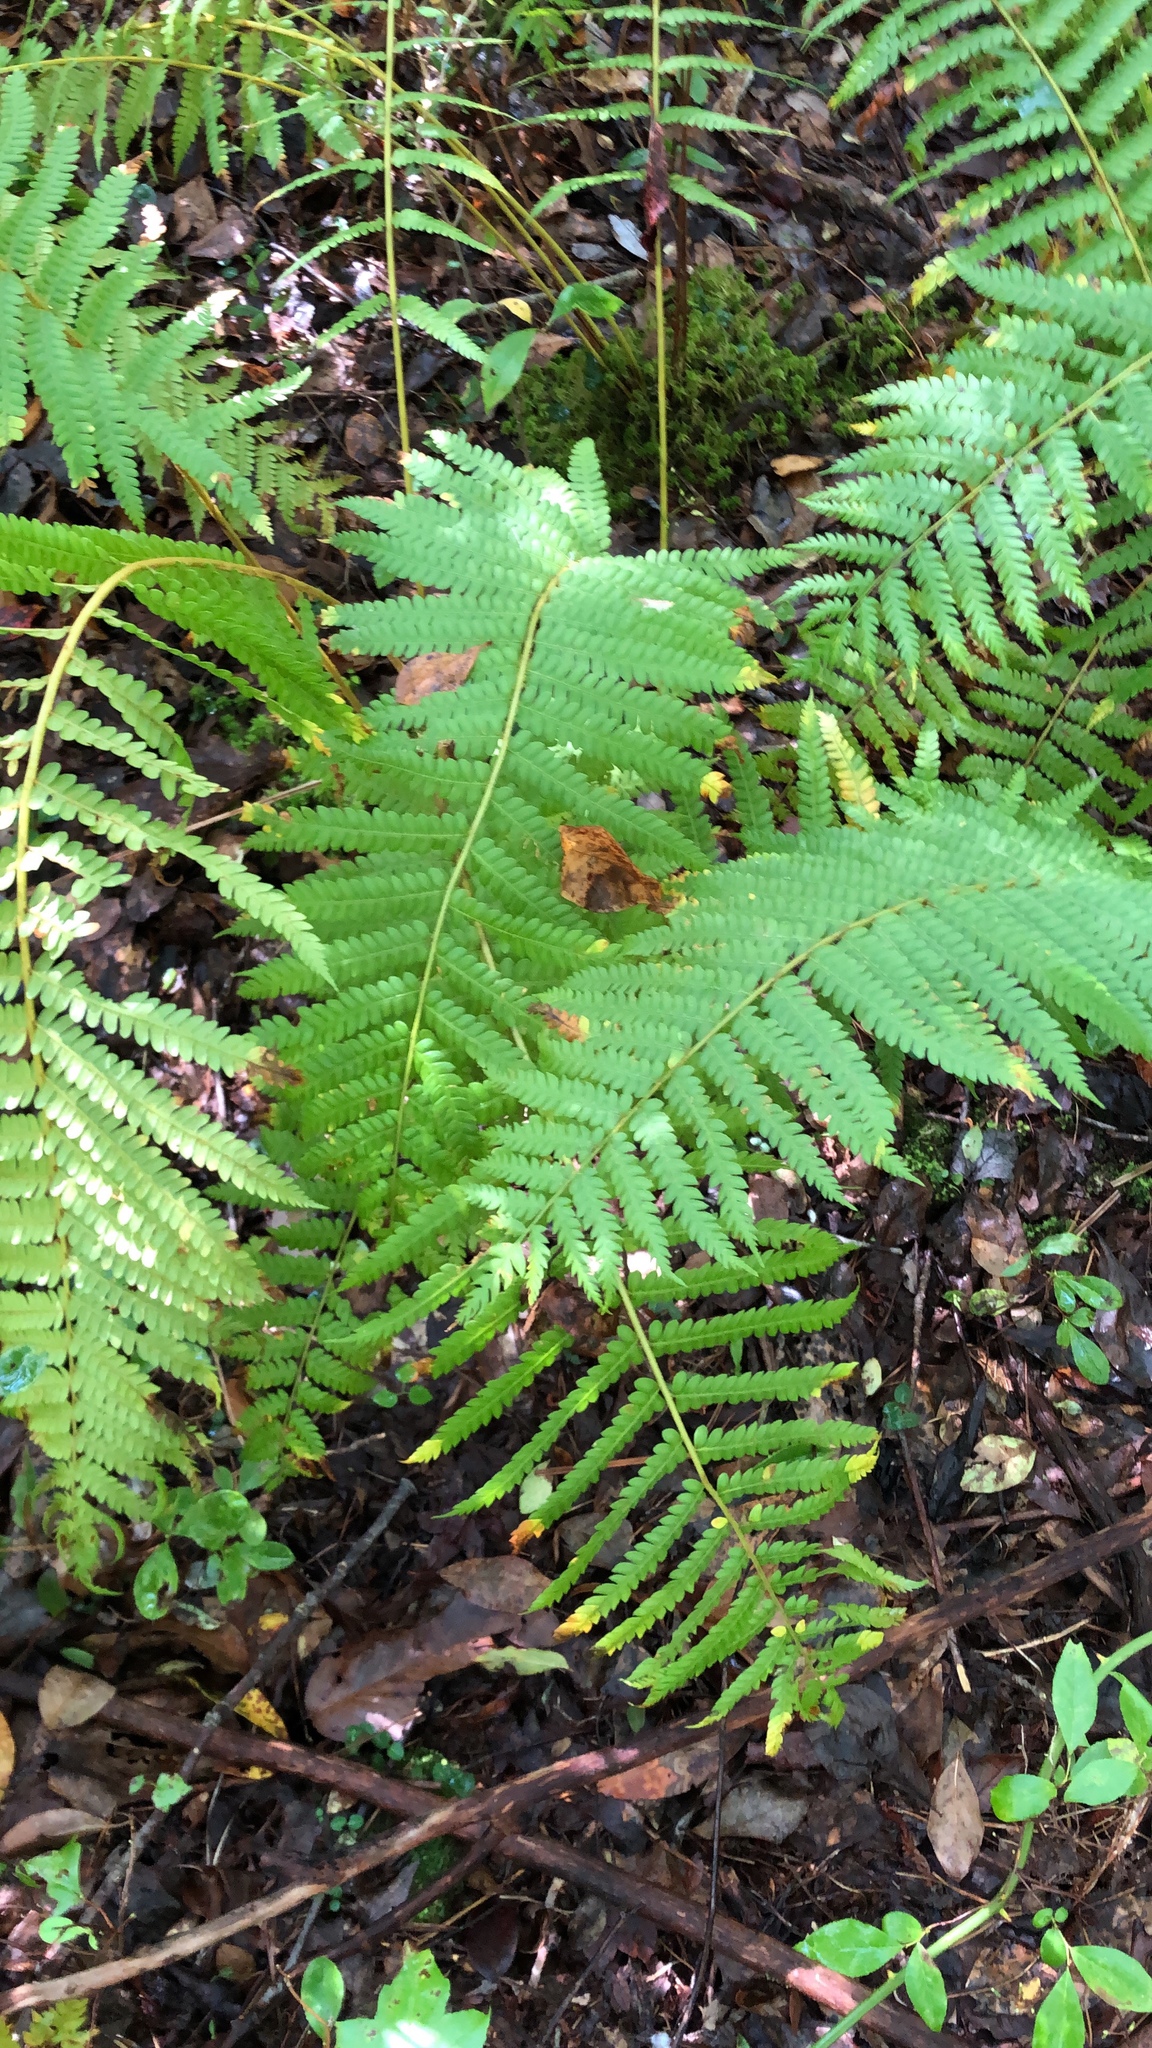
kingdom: Plantae
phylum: Tracheophyta
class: Polypodiopsida
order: Osmundales
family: Osmundaceae
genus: Osmundastrum
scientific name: Osmundastrum cinnamomeum
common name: Cinnamon fern
